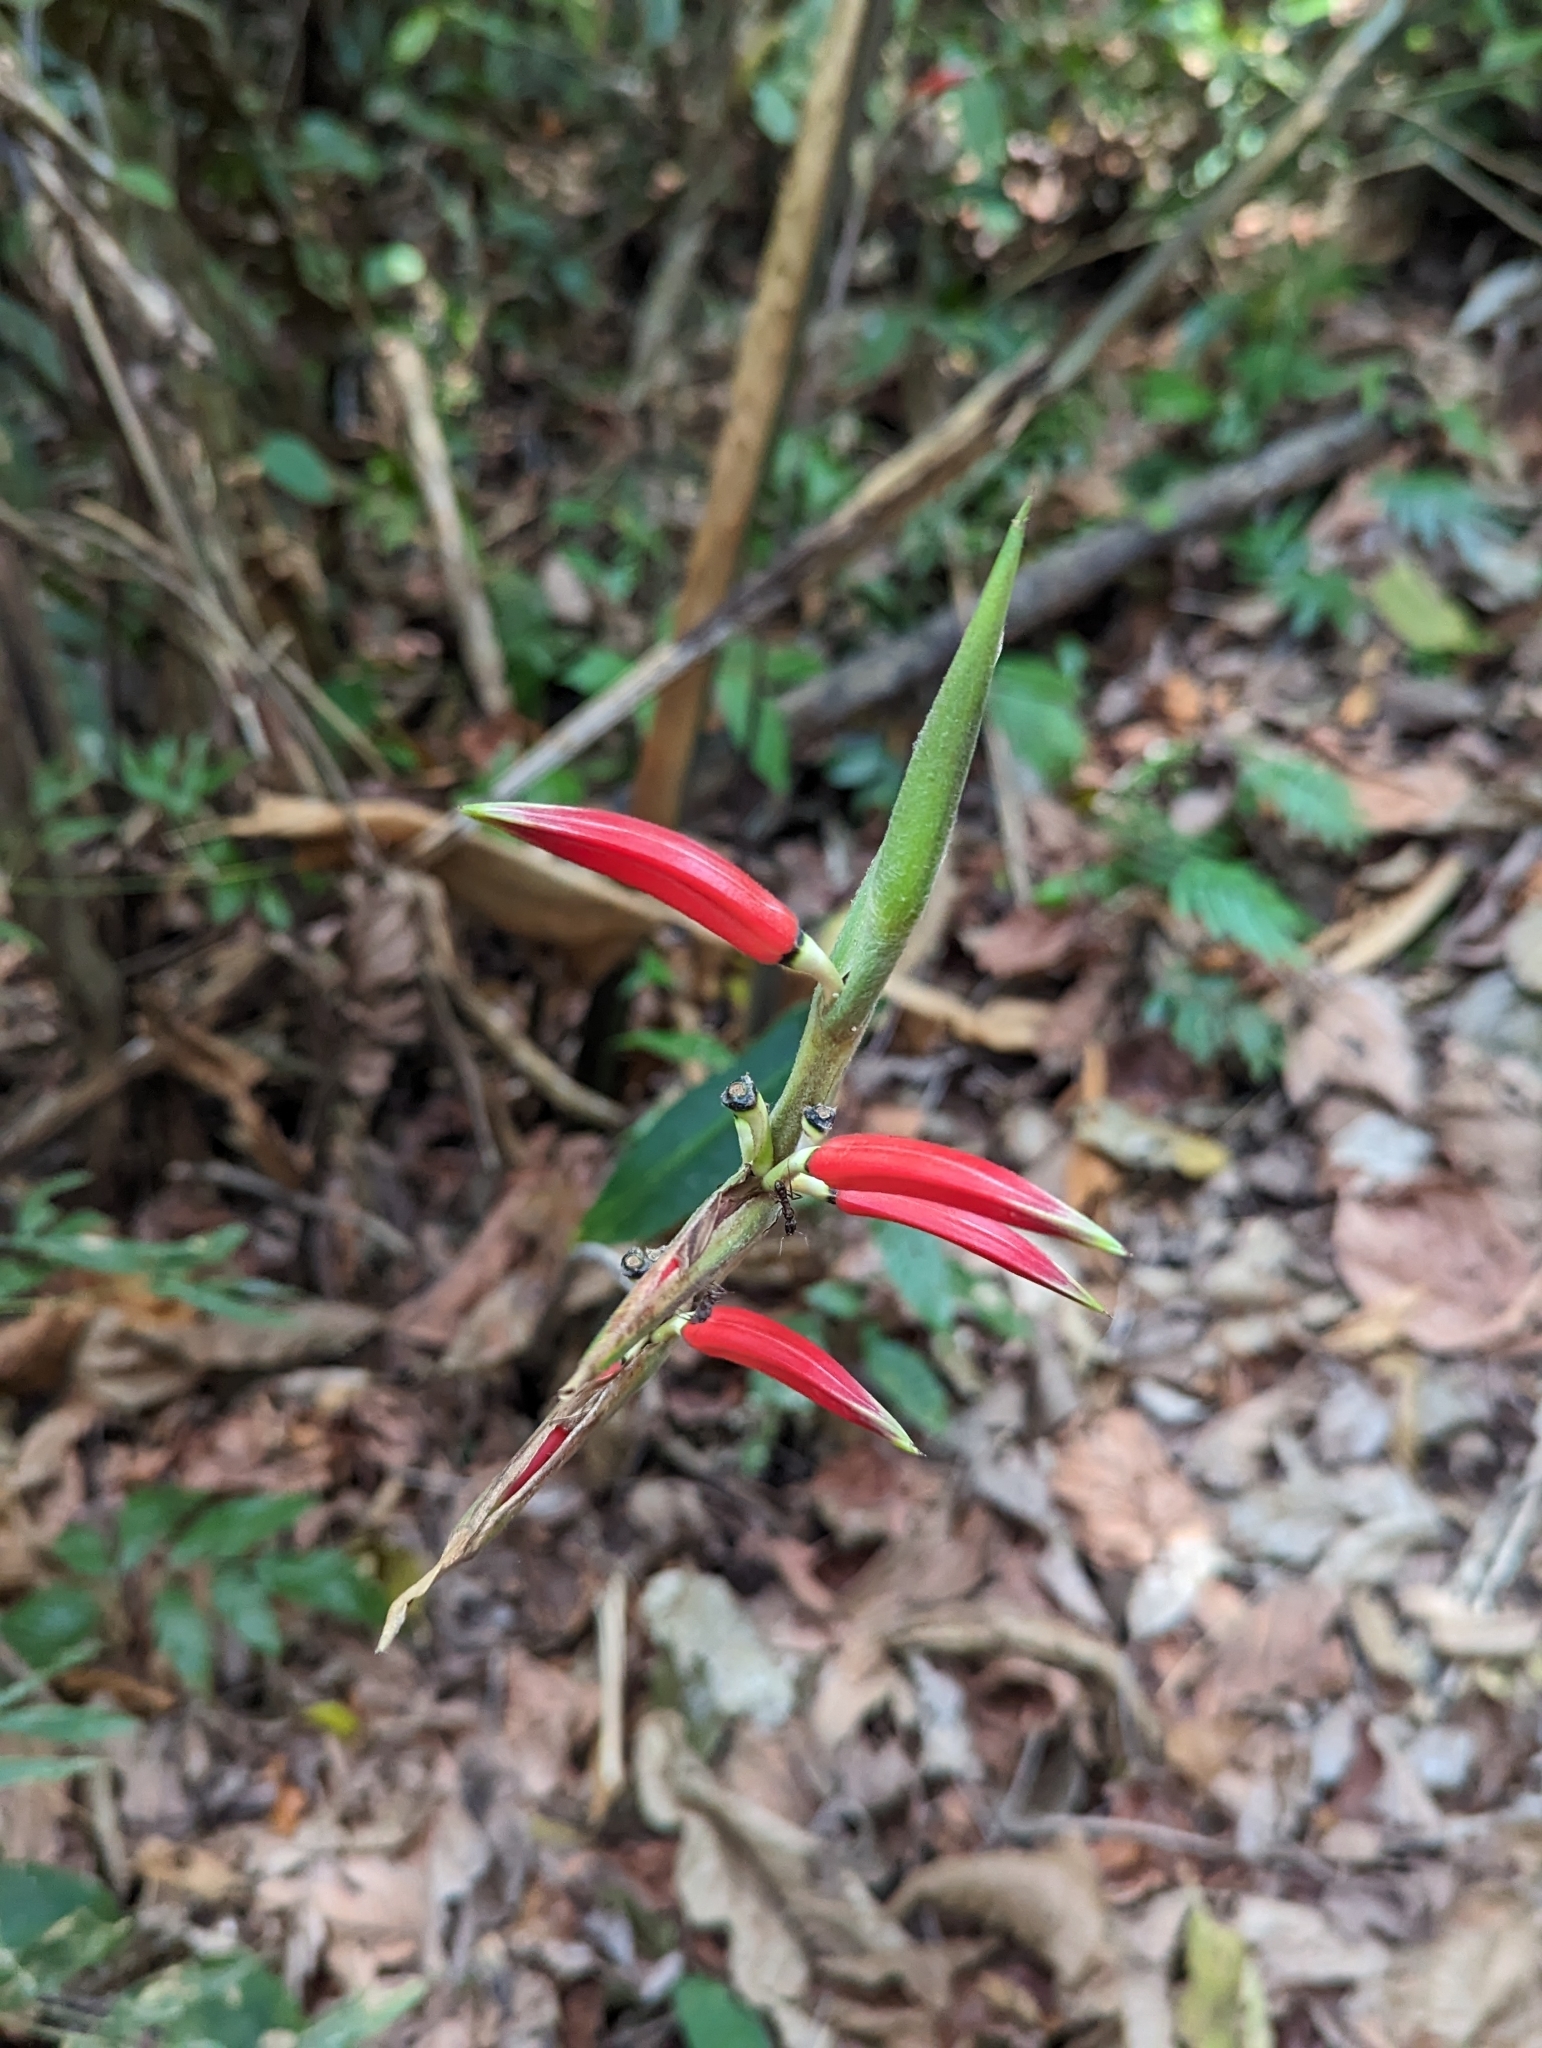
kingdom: Plantae
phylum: Tracheophyta
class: Liliopsida
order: Zingiberales
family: Heliconiaceae
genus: Heliconia
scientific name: Heliconia metallica
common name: Shining bird of paradise
